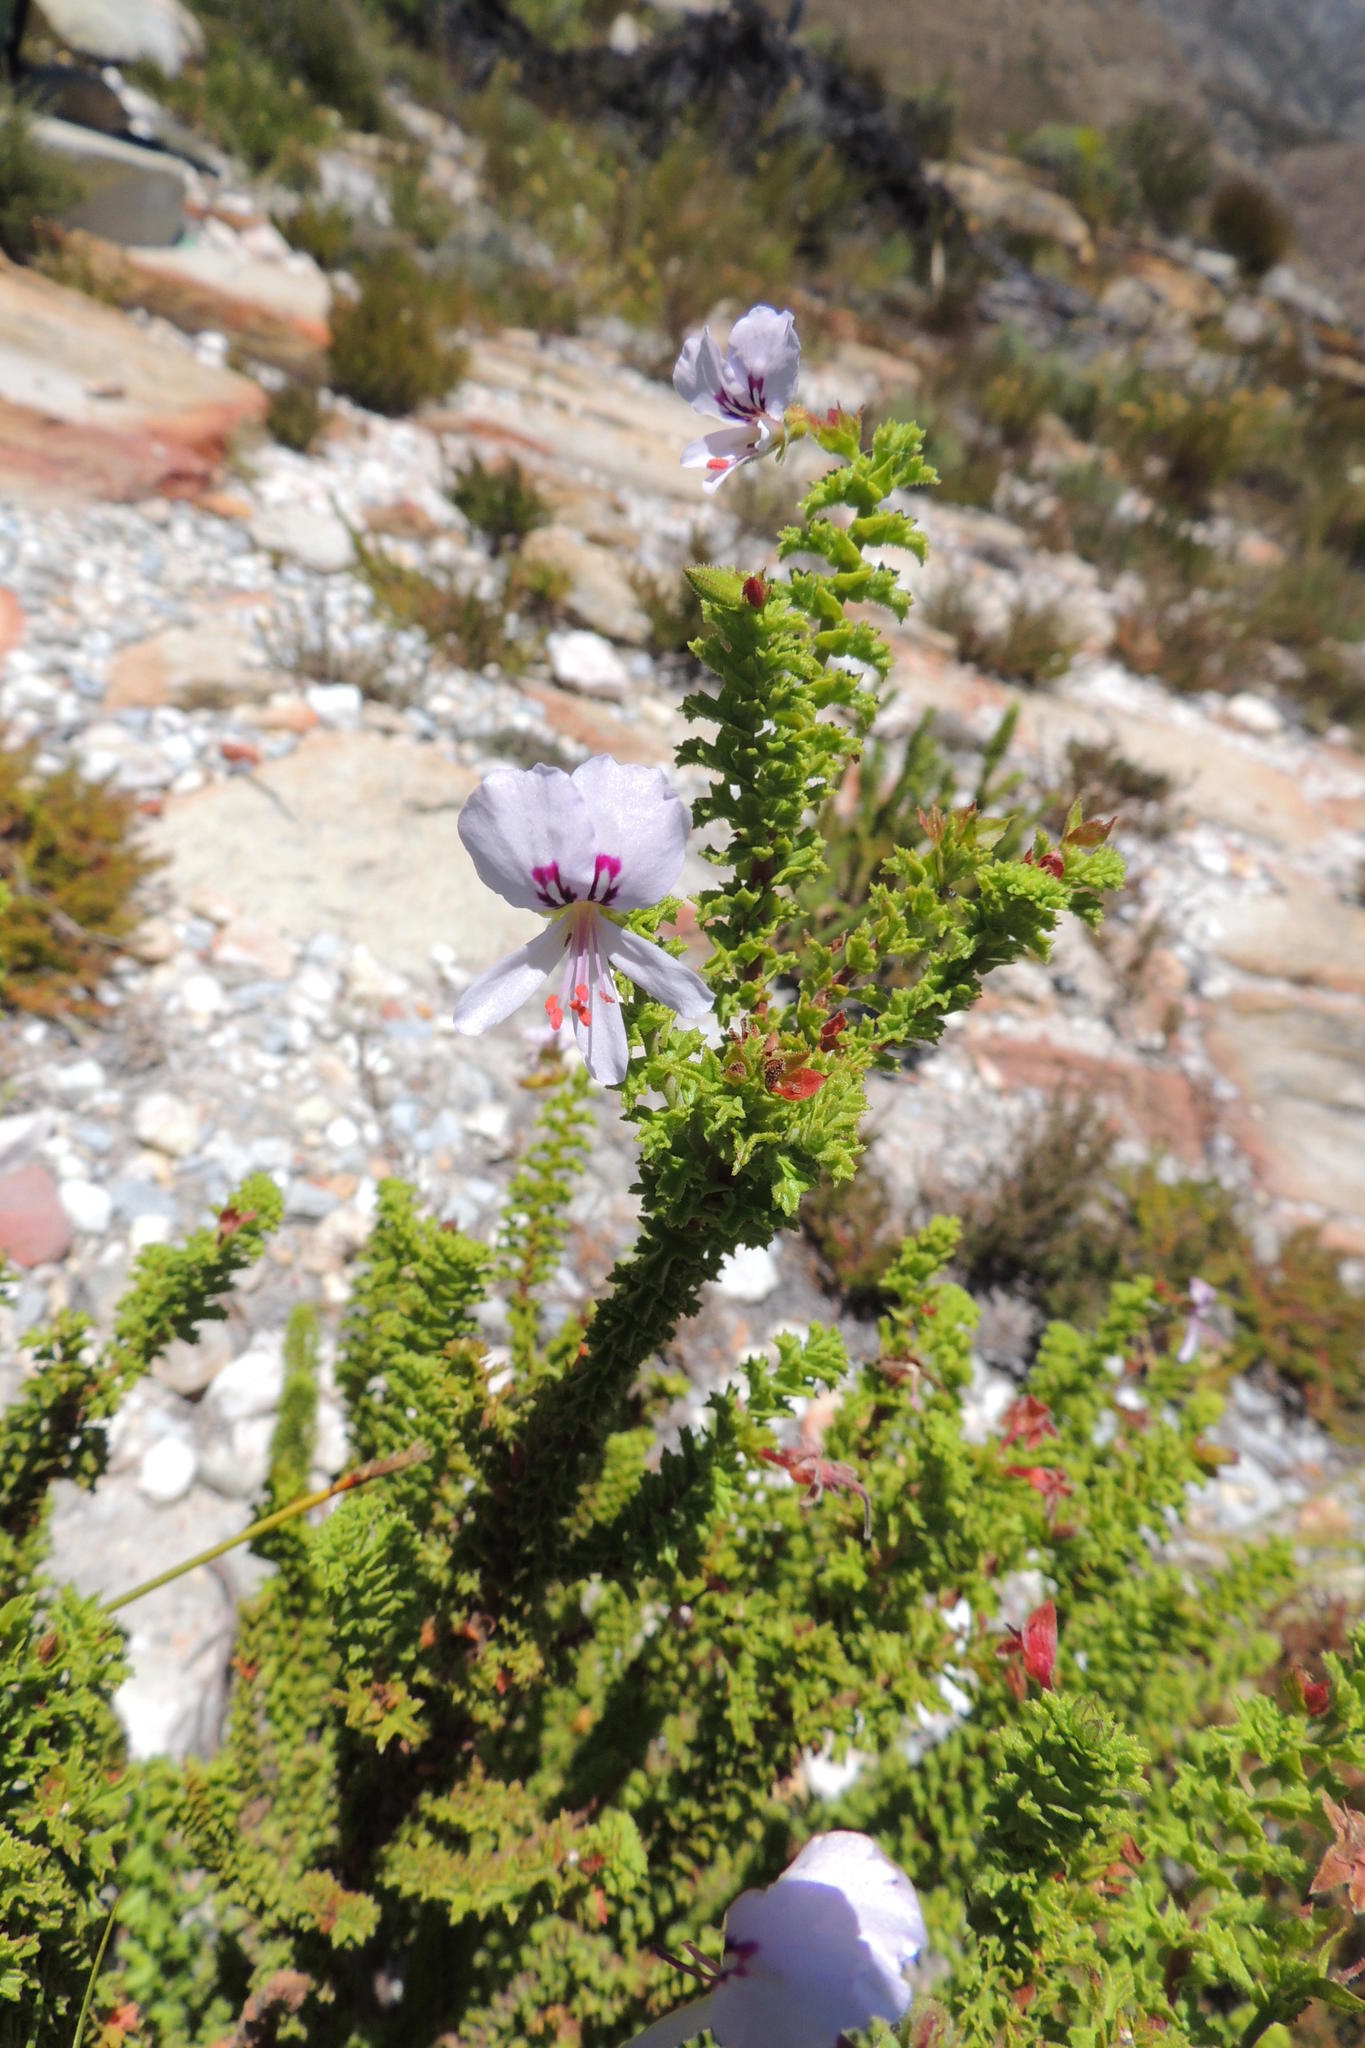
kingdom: Plantae
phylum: Tracheophyta
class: Magnoliopsida
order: Geraniales
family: Geraniaceae
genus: Pelargonium
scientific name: Pelargonium crispum
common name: Crisped-leaf pelargonium
